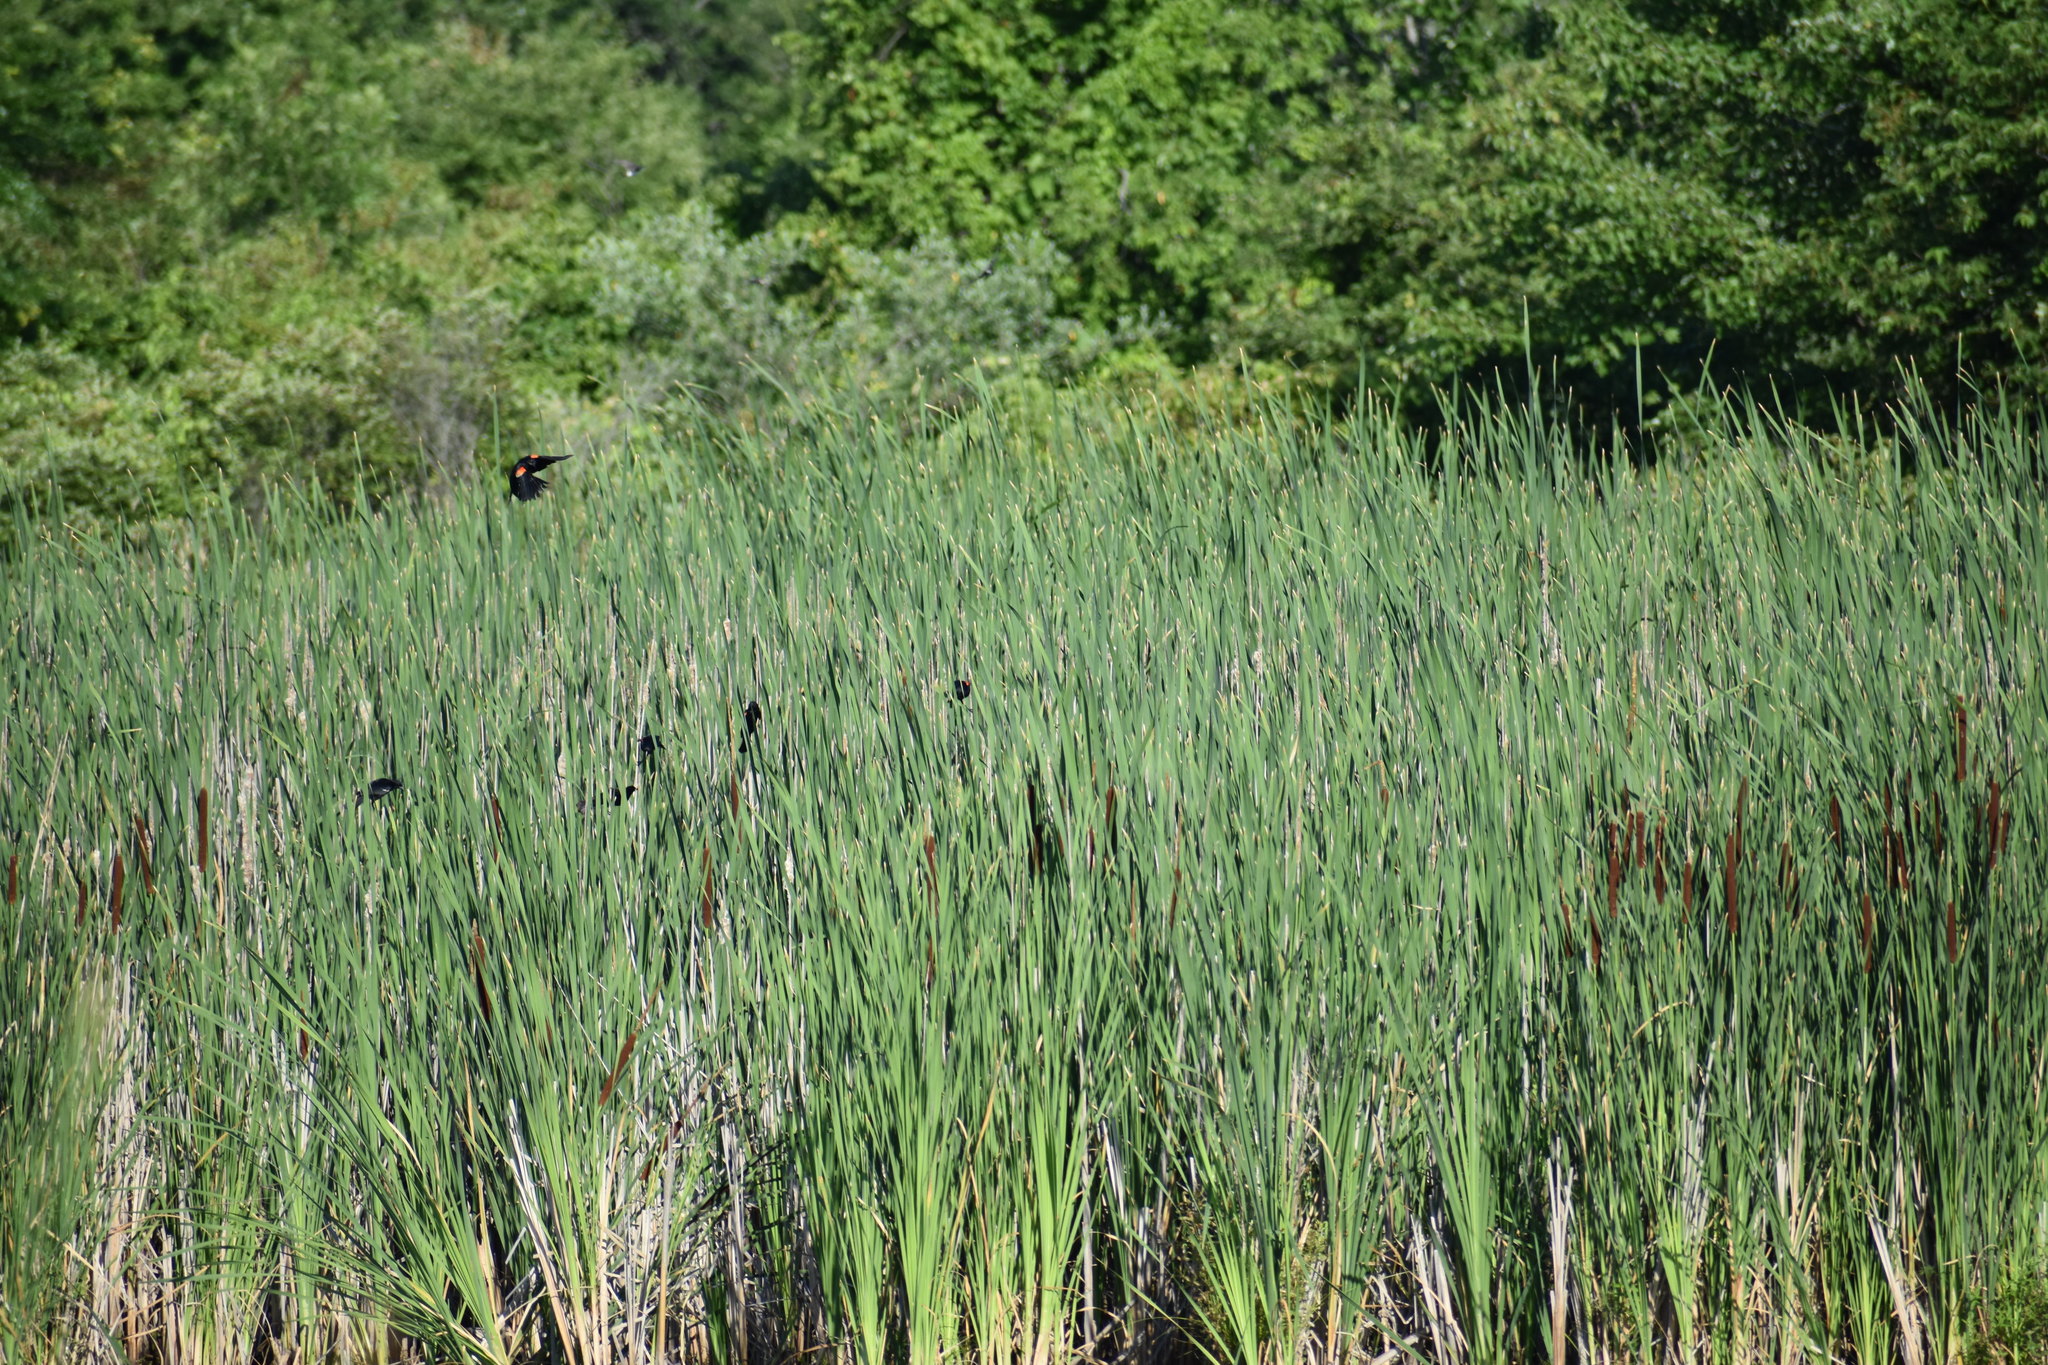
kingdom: Animalia
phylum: Chordata
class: Aves
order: Passeriformes
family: Icteridae
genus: Agelaius
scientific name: Agelaius phoeniceus
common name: Red-winged blackbird
